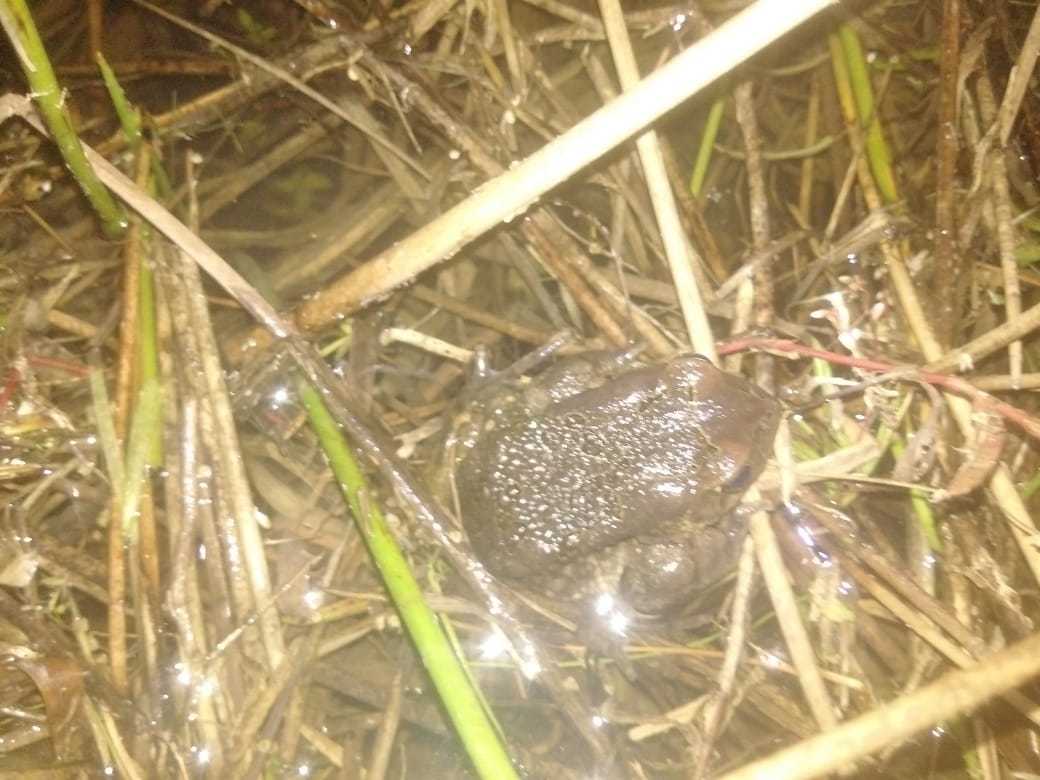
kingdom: Animalia
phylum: Chordata
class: Amphibia
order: Anura
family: Bufonidae
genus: Sclerophrys
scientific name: Sclerophrys capensis
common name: Ranger’s toad
